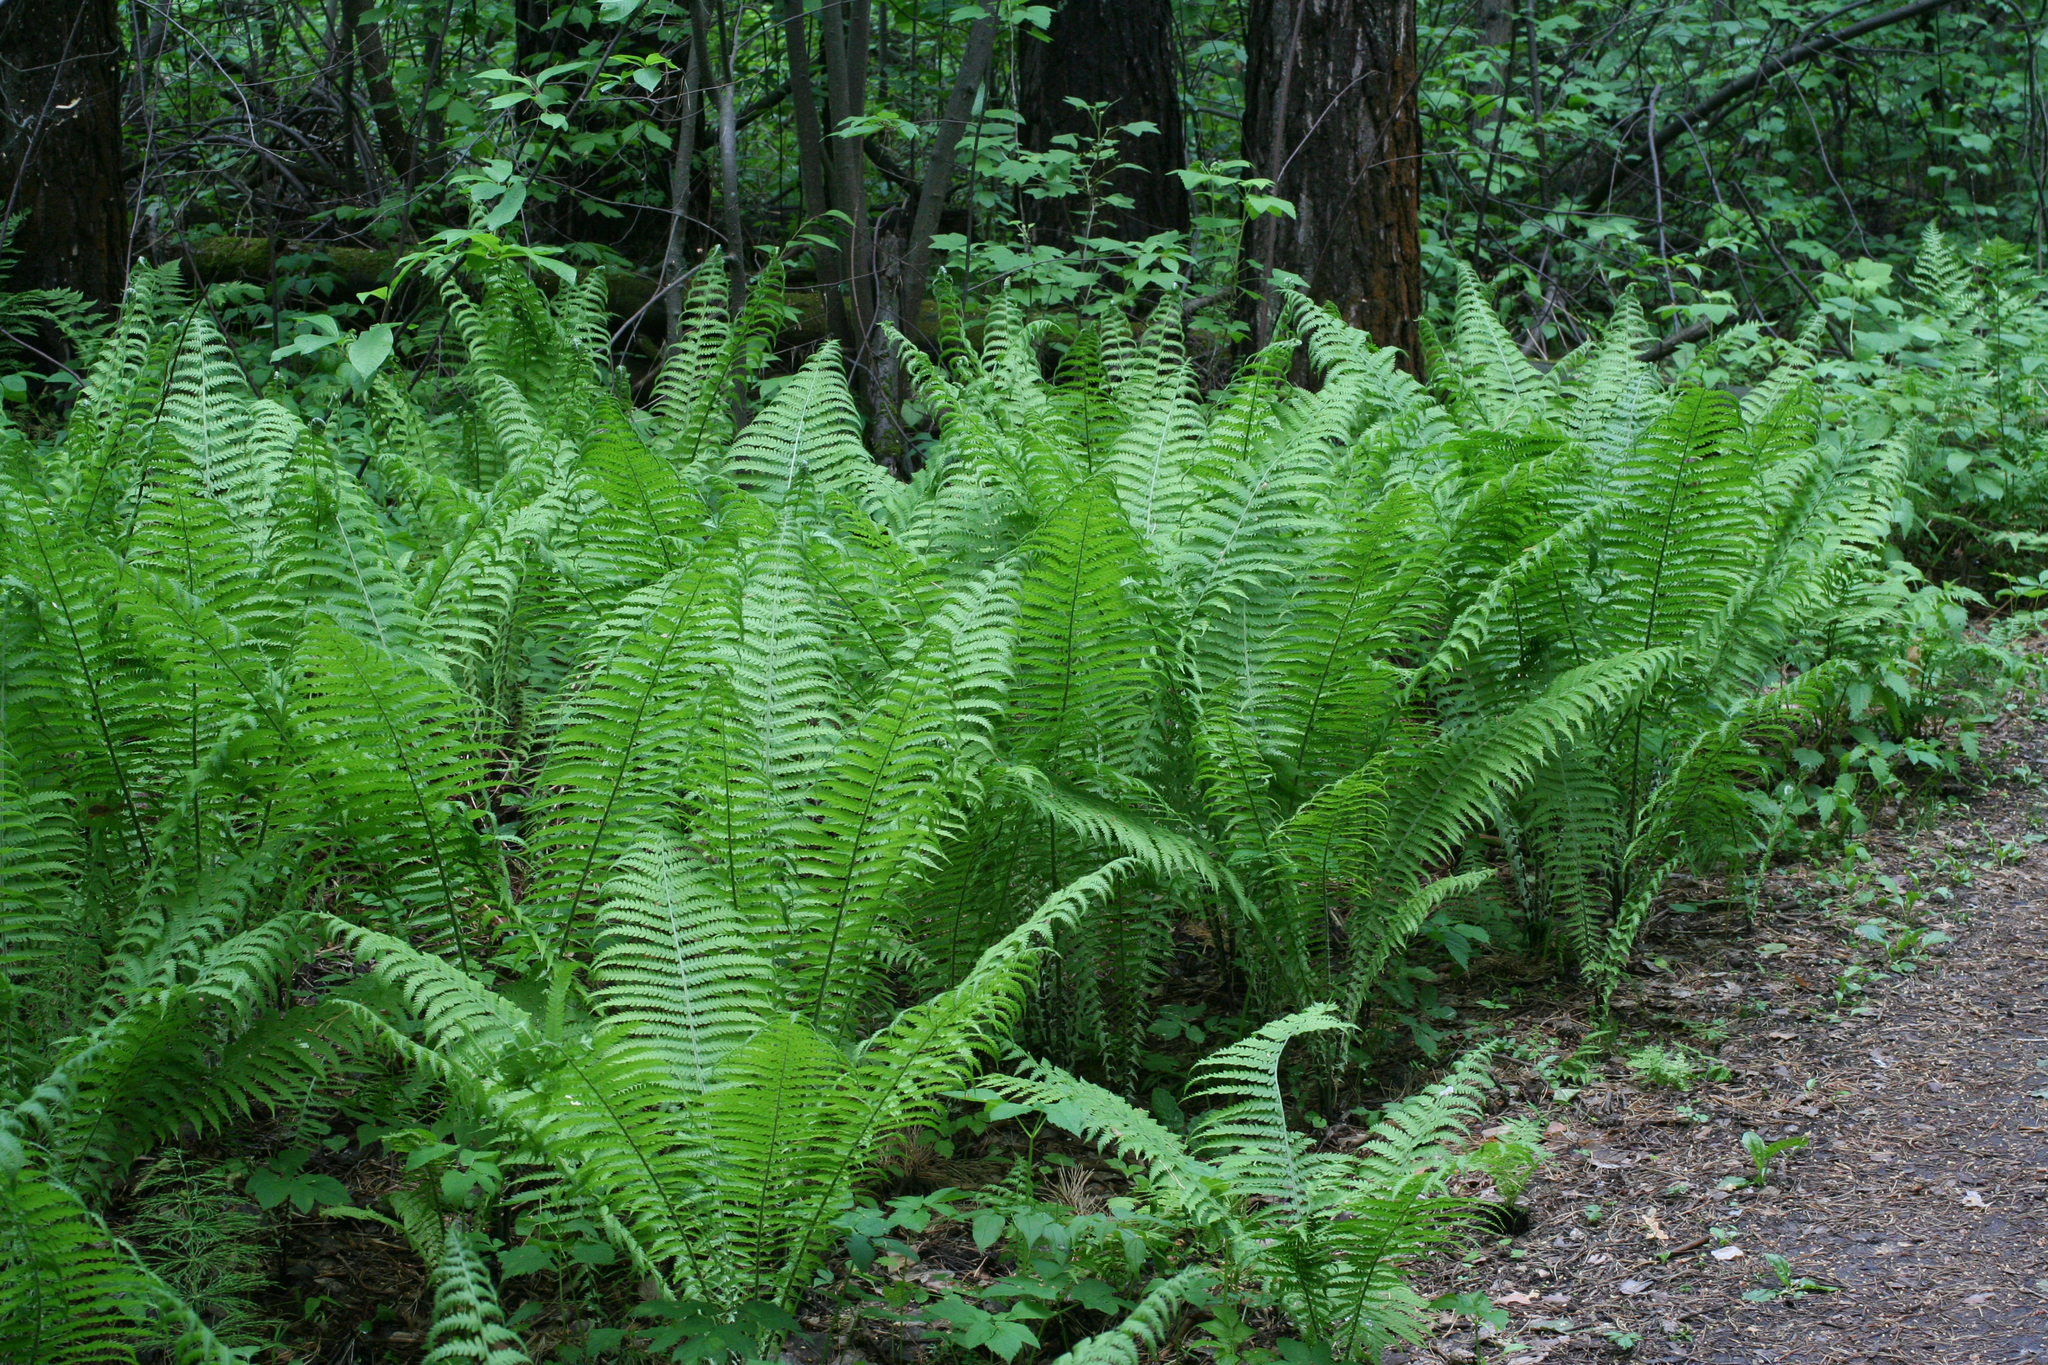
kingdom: Plantae
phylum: Tracheophyta
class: Polypodiopsida
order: Polypodiales
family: Onocleaceae
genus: Matteuccia
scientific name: Matteuccia struthiopteris
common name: Ostrich fern
